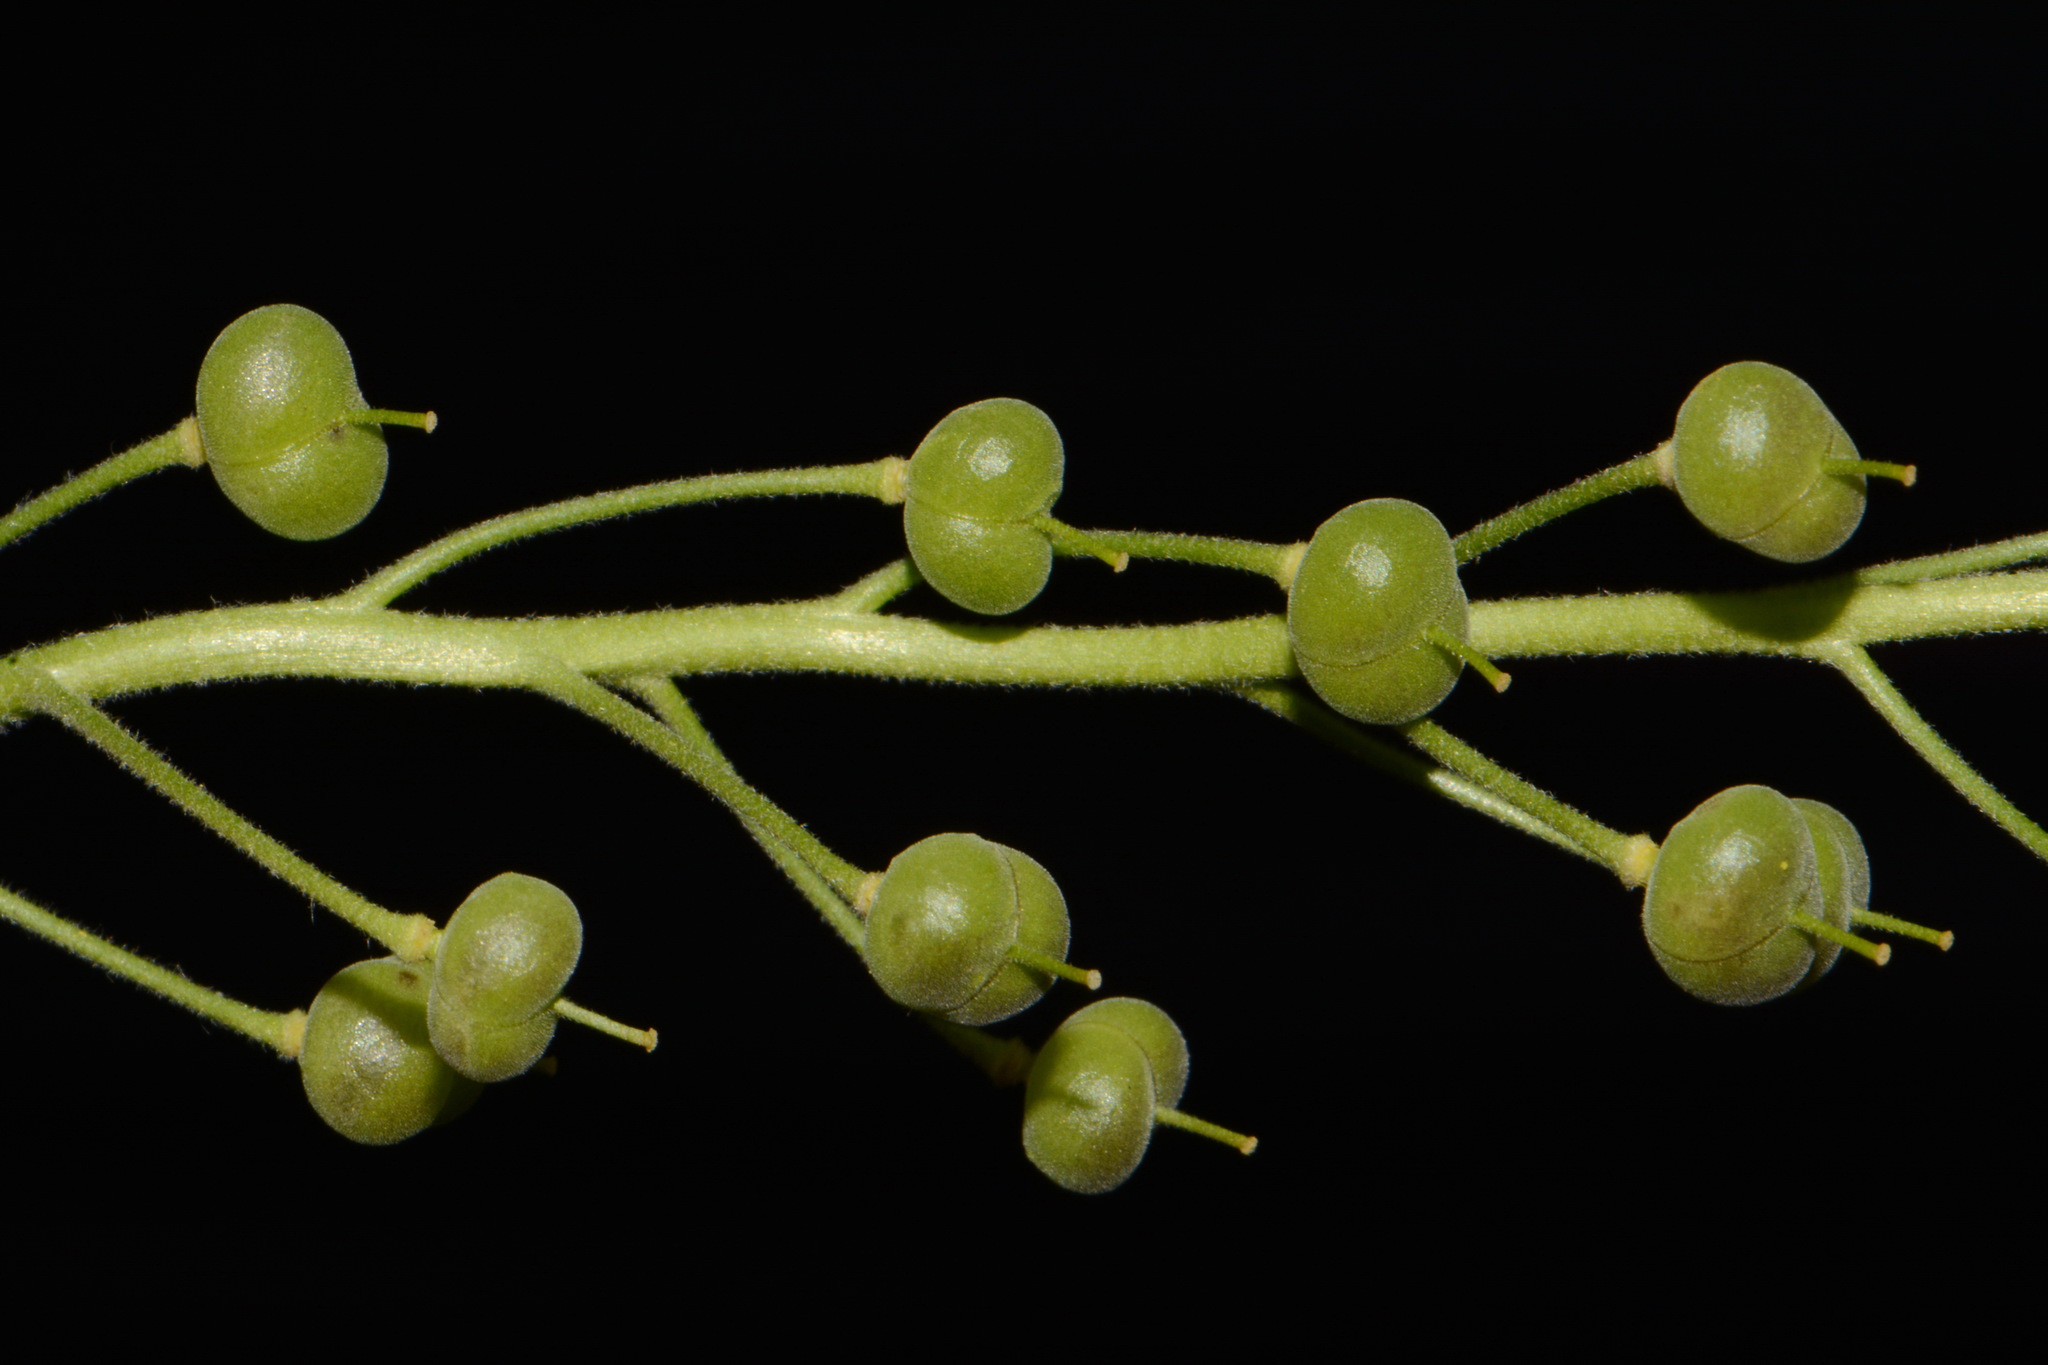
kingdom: Plantae
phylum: Tracheophyta
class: Magnoliopsida
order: Brassicales
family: Brassicaceae
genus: Paysonia
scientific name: Paysonia densipila
